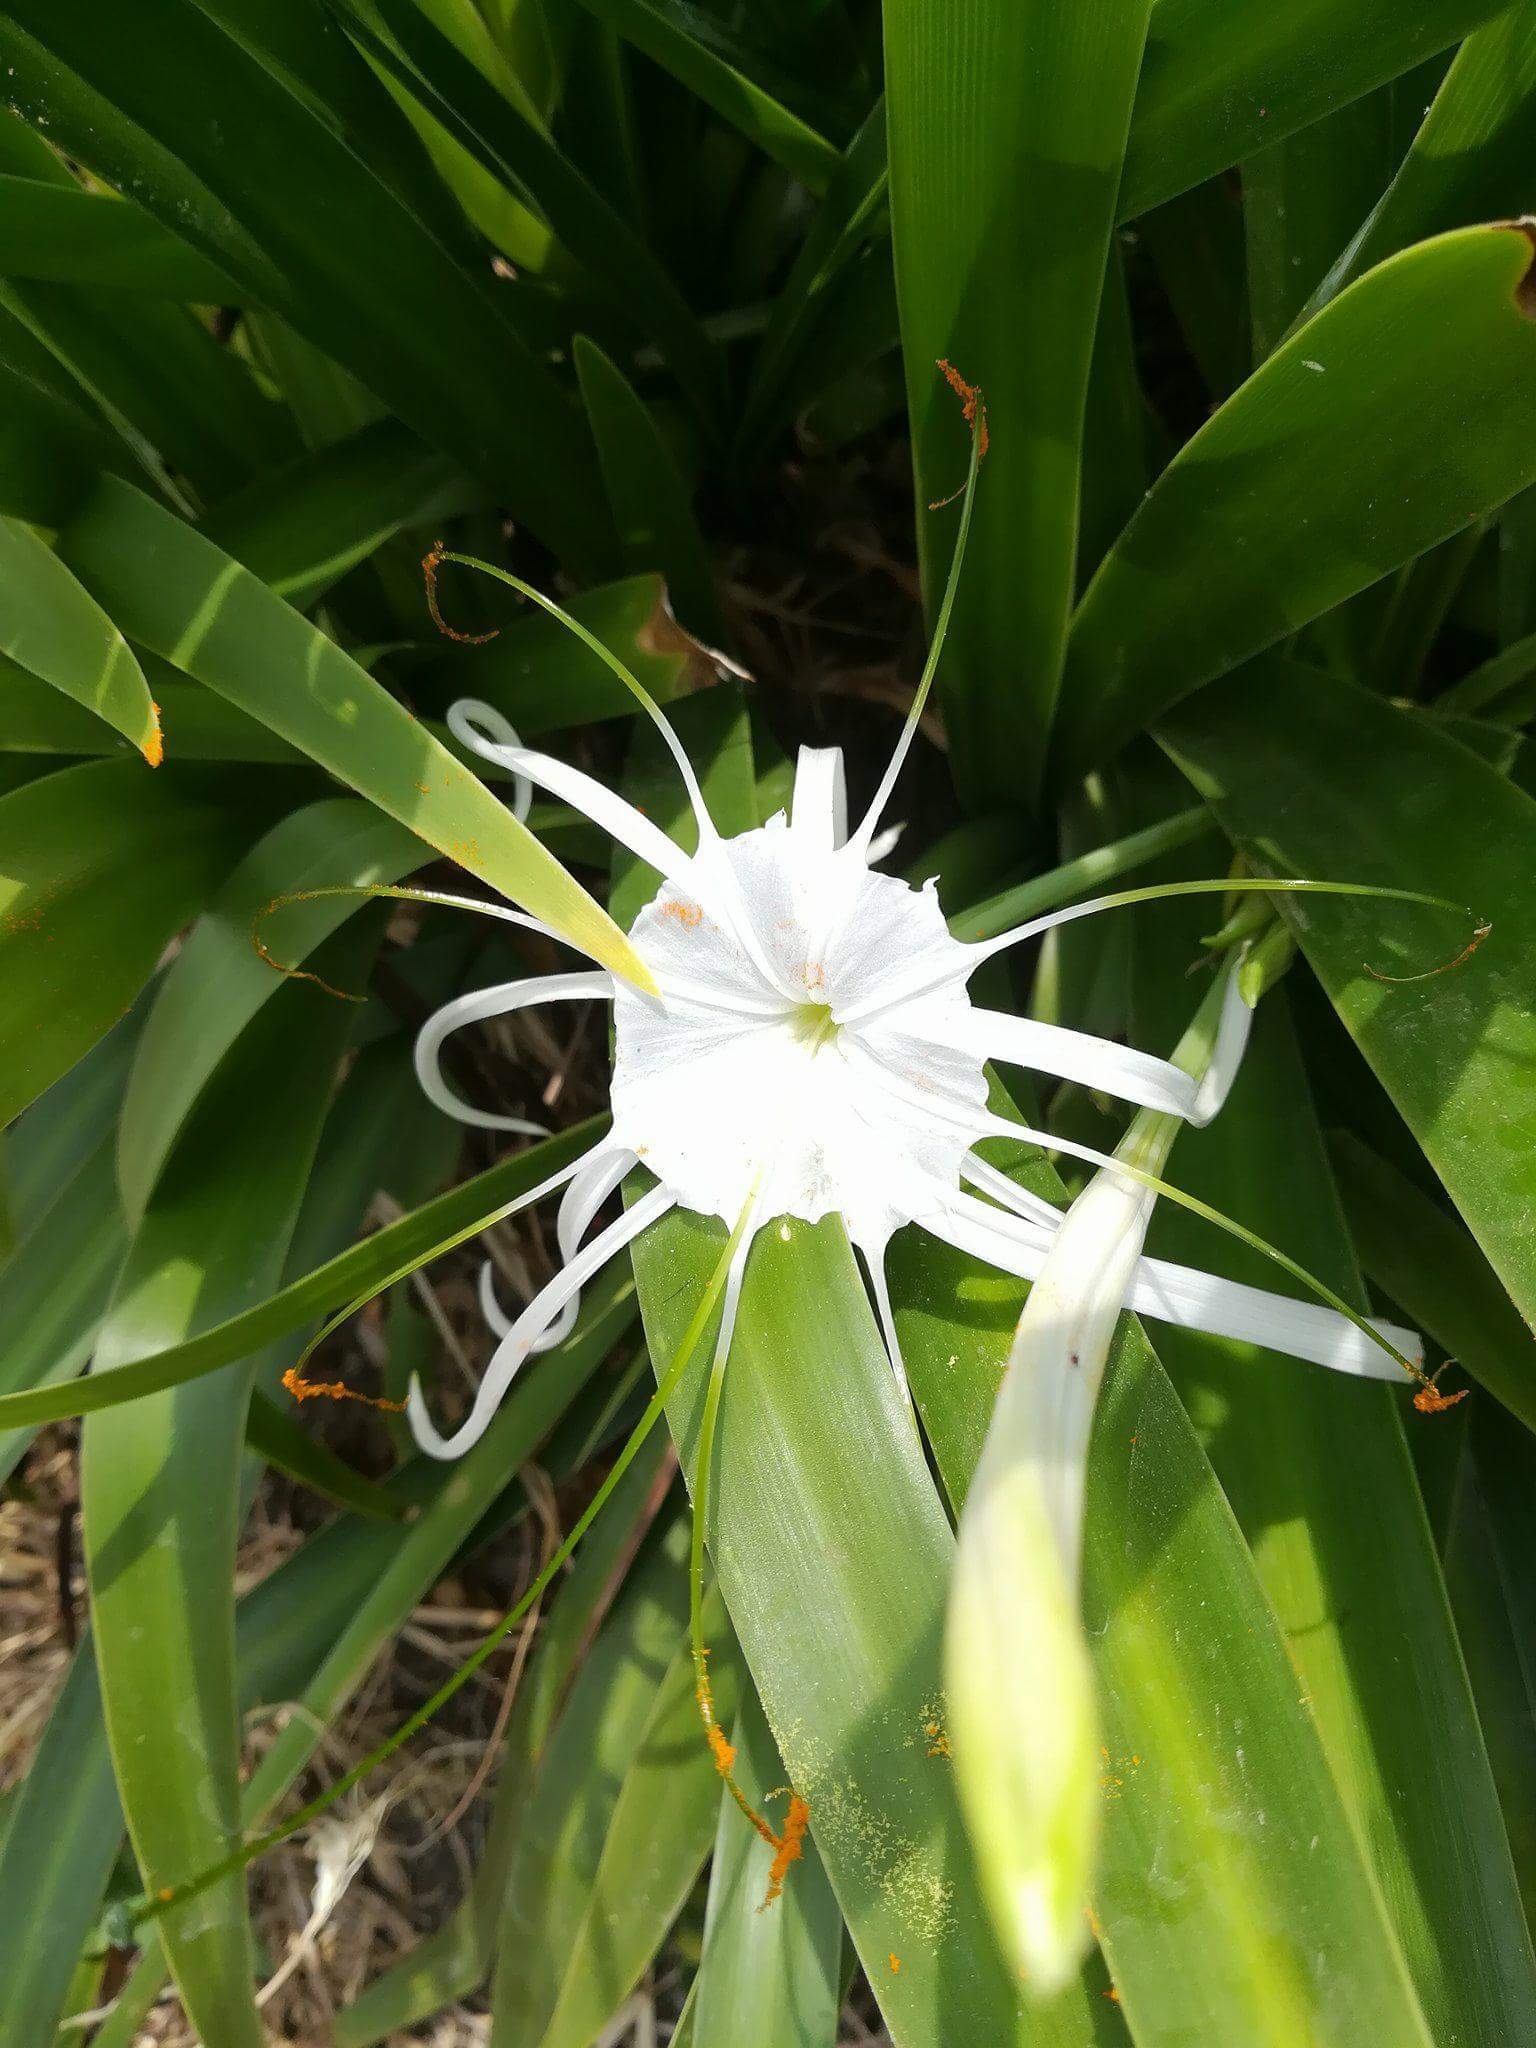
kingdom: Plantae
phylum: Tracheophyta
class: Liliopsida
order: Asparagales
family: Amaryllidaceae
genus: Hymenocallis
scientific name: Hymenocallis acutifolia
